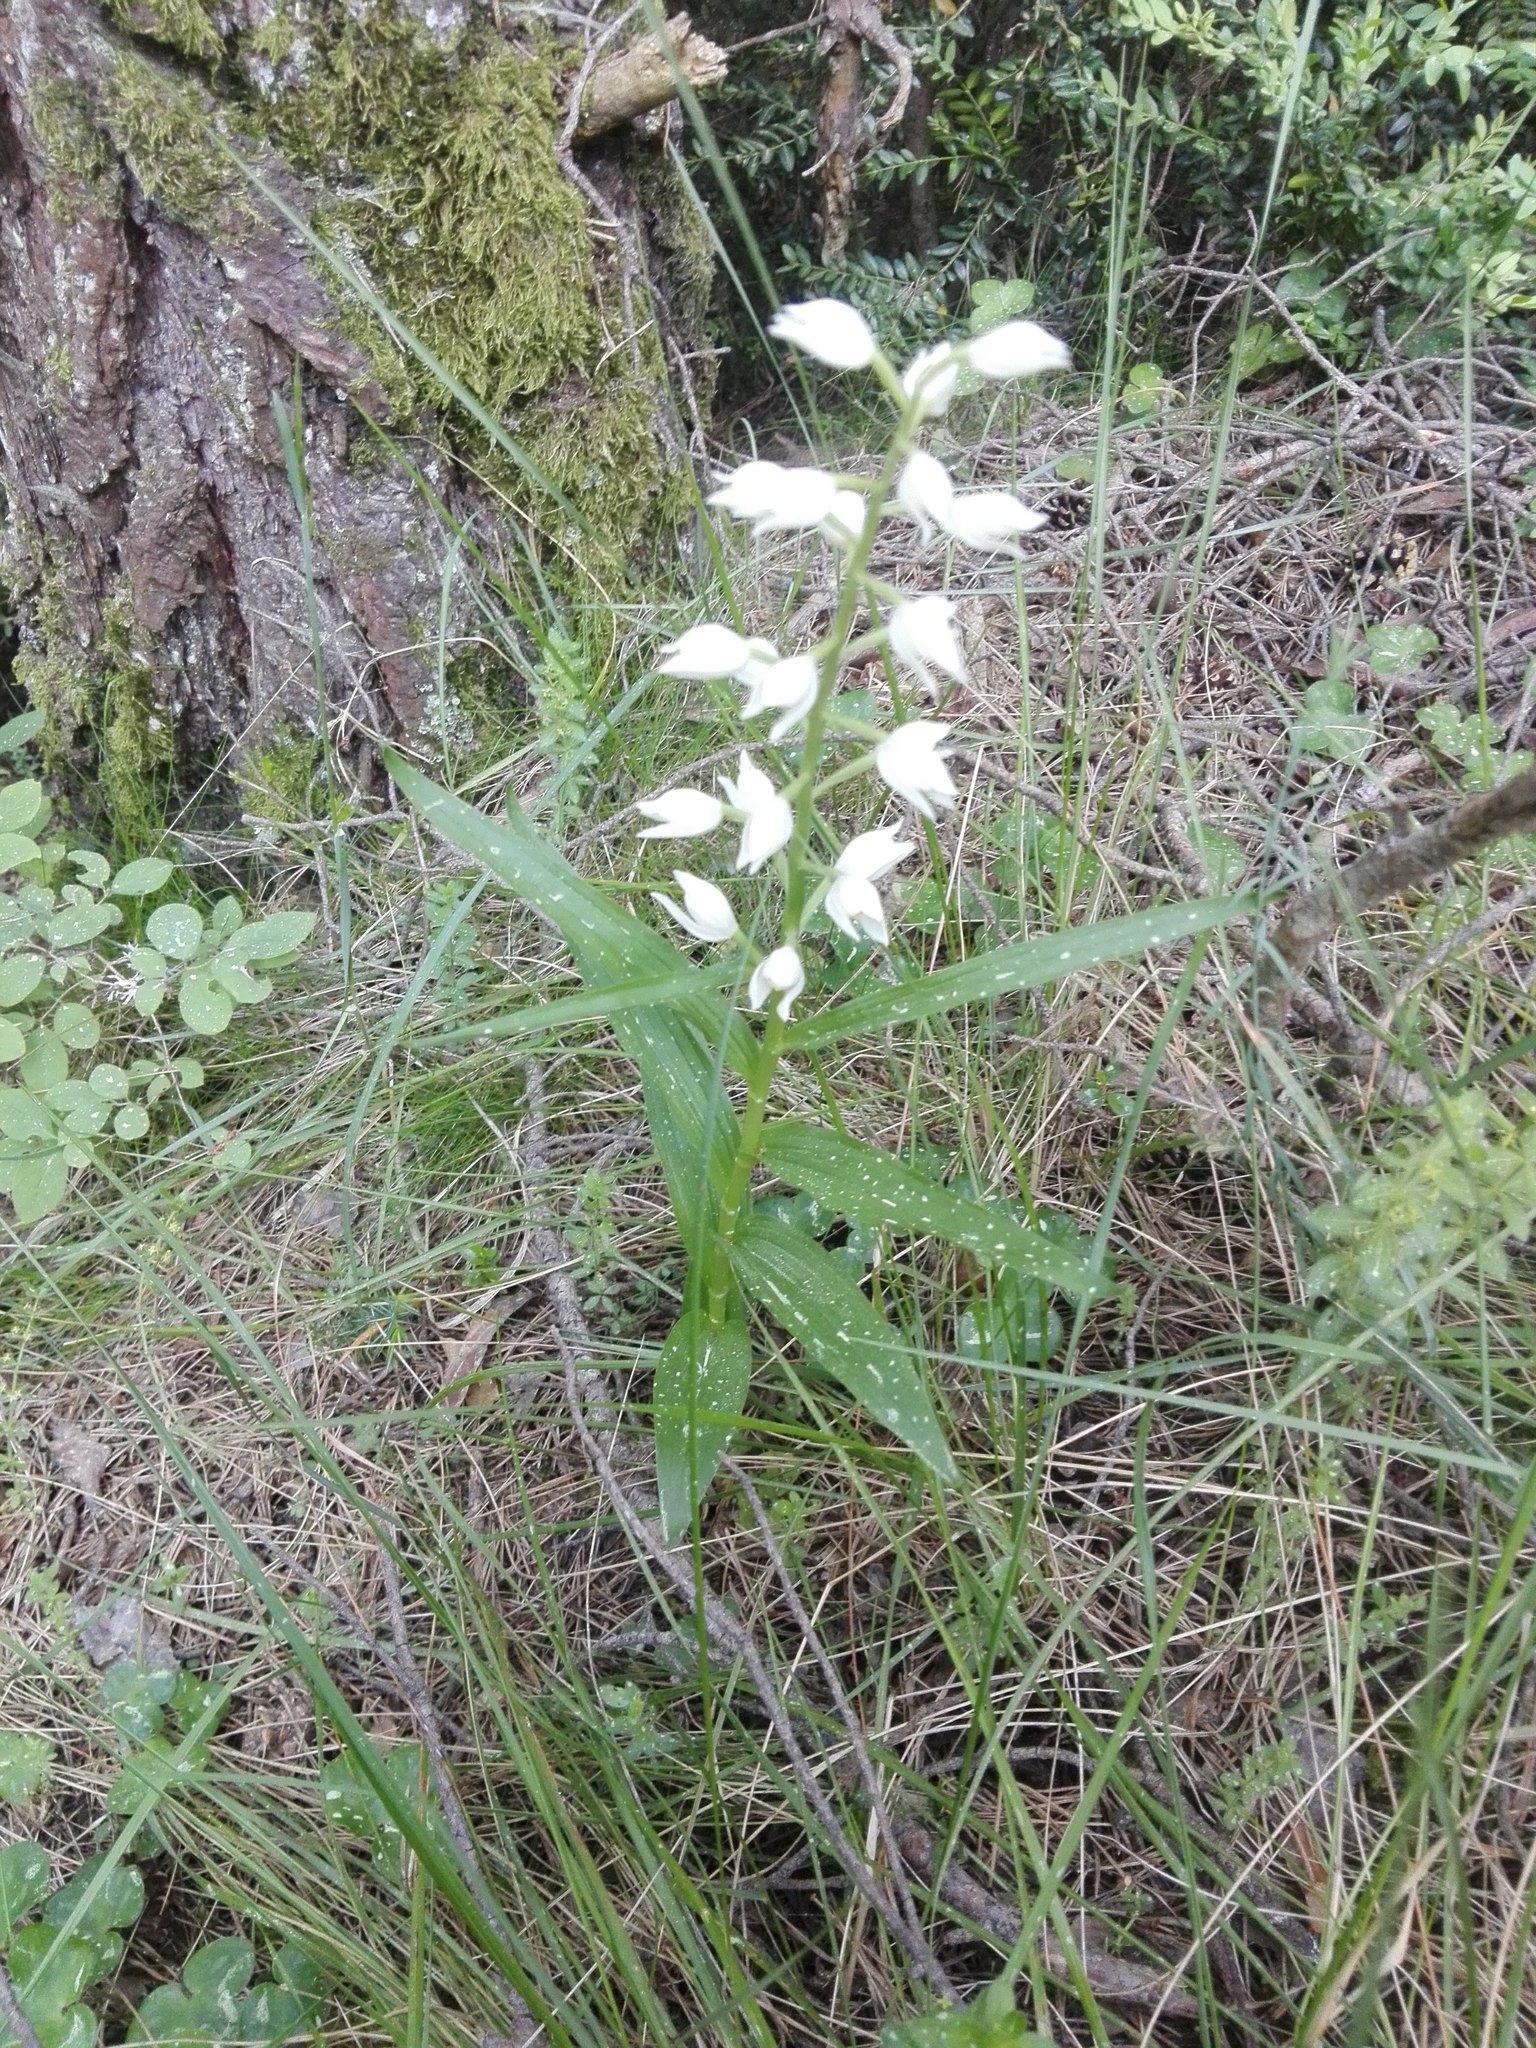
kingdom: Plantae
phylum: Tracheophyta
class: Liliopsida
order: Asparagales
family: Orchidaceae
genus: Cephalanthera
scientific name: Cephalanthera longifolia
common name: Narrow-leaved helleborine
